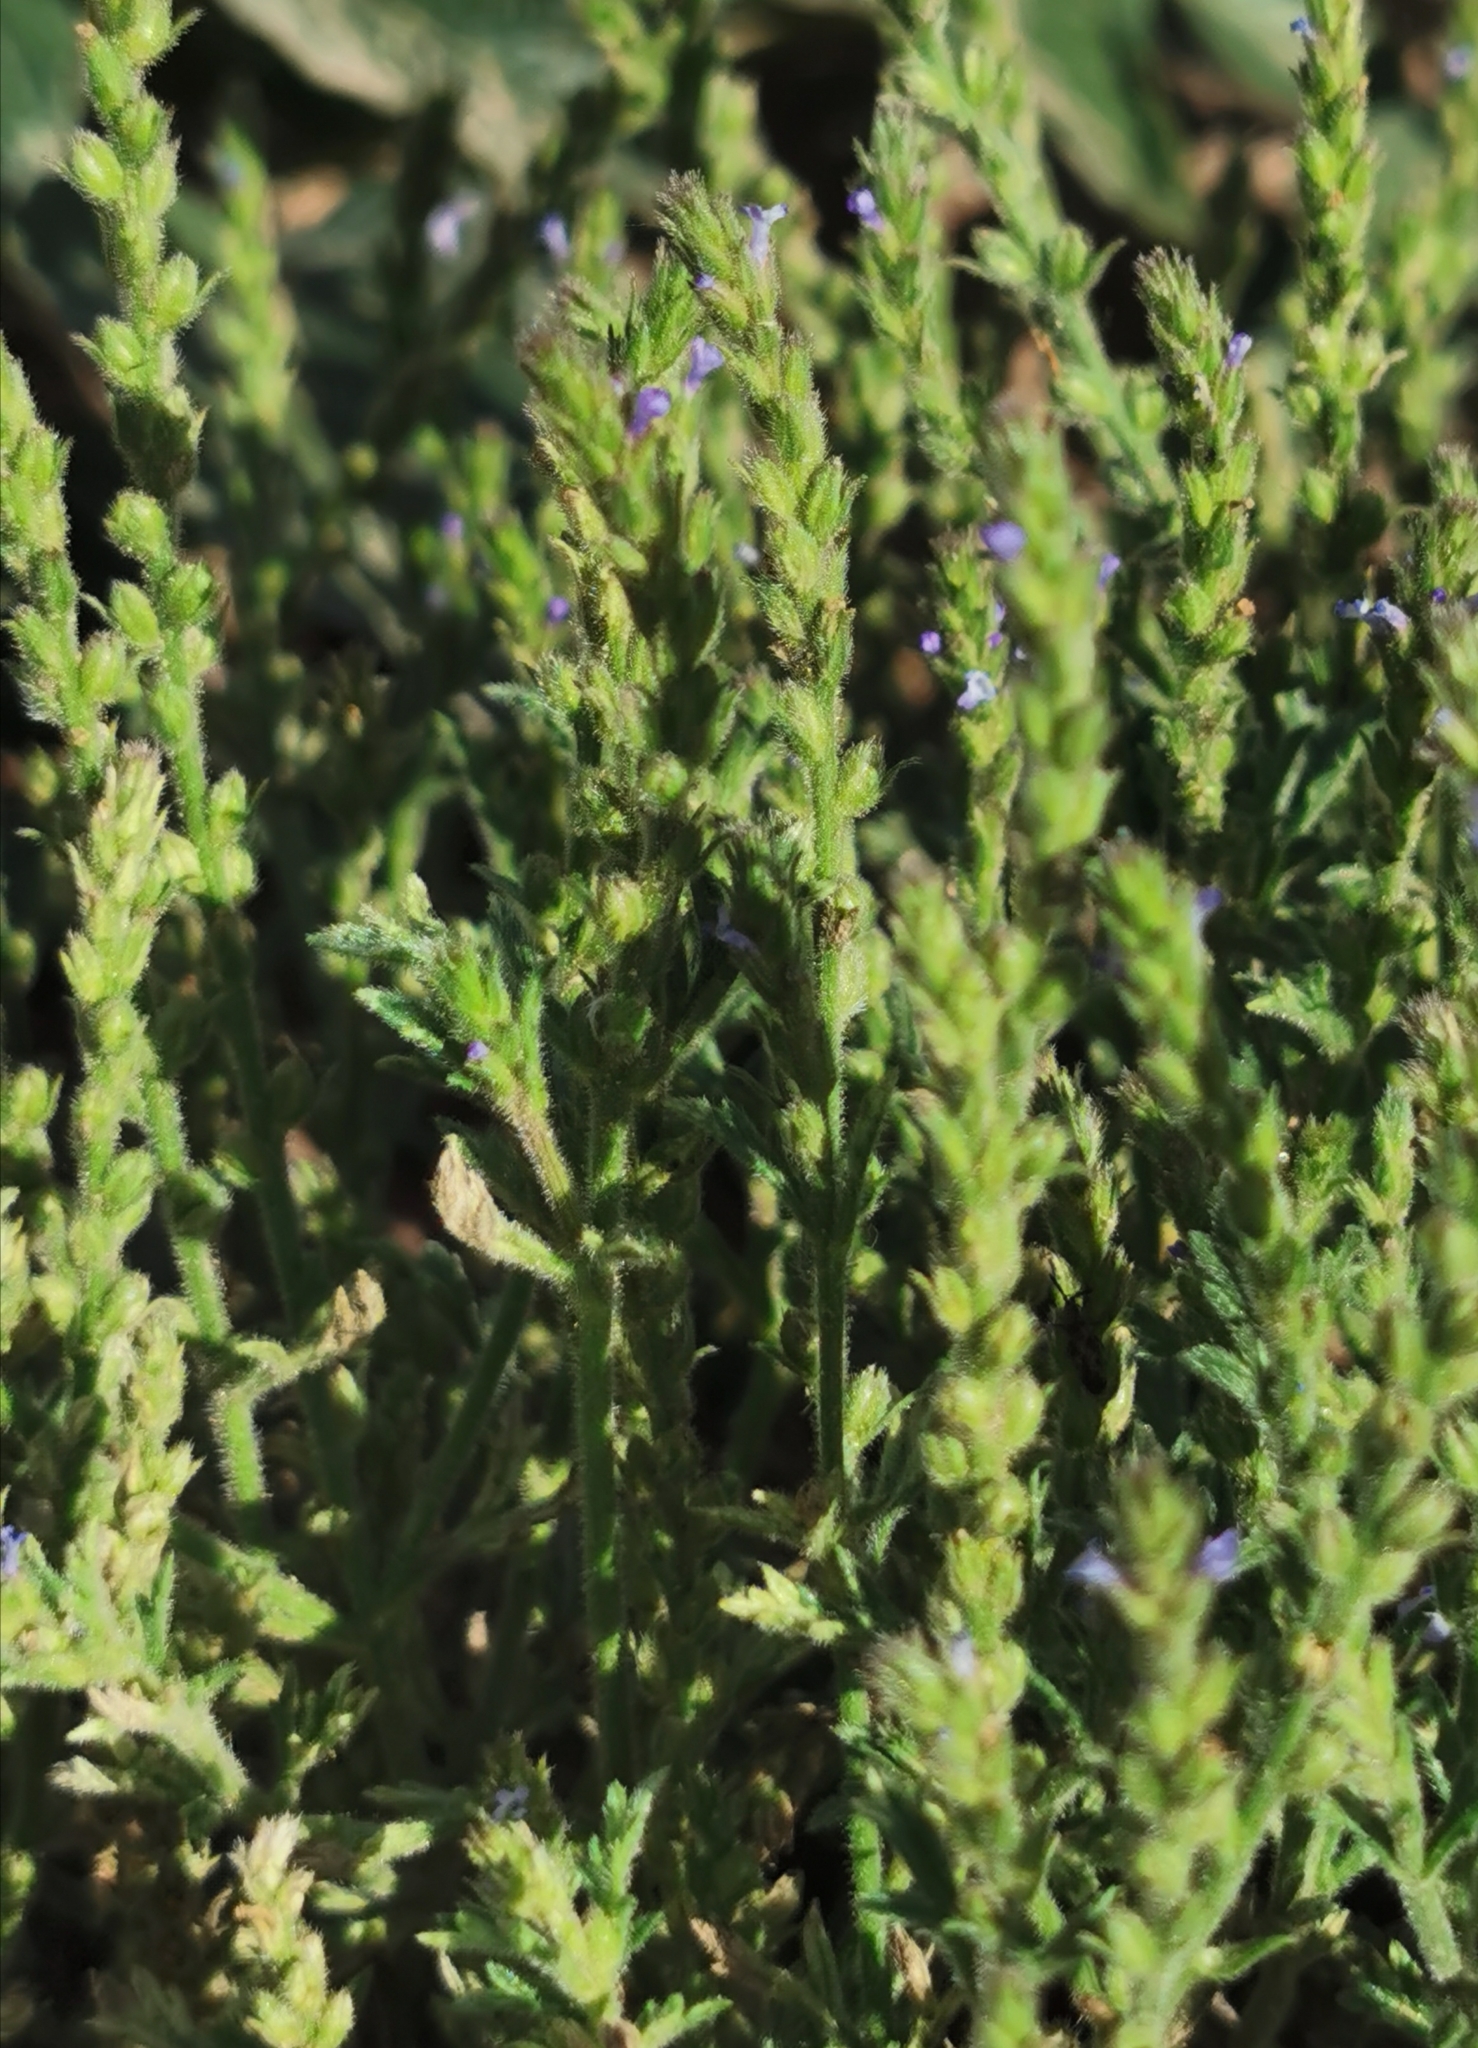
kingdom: Plantae
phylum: Tracheophyta
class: Magnoliopsida
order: Lamiales
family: Verbenaceae
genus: Verbena
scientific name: Verbena bracteata
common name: Bracted vervain
